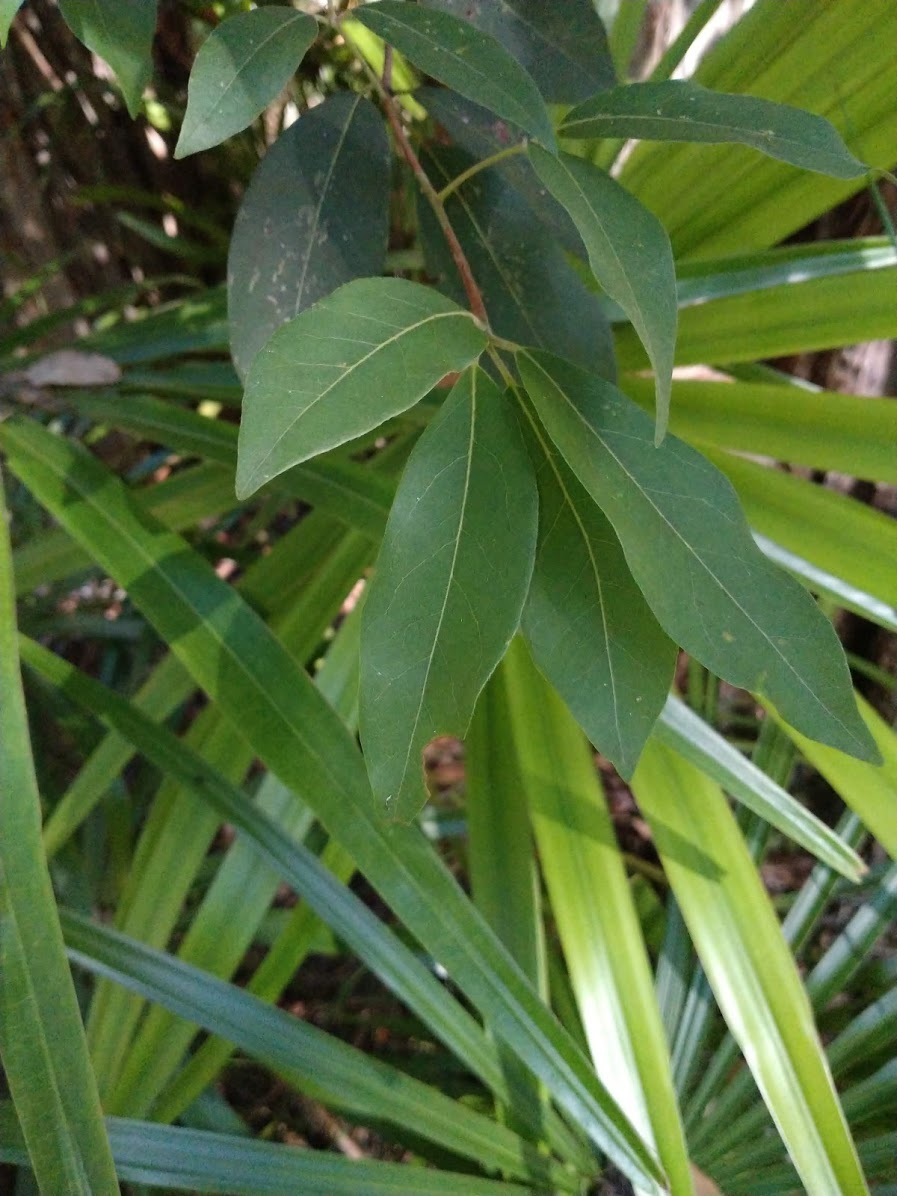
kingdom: Plantae
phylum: Tracheophyta
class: Magnoliopsida
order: Myrtales
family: Myrtaceae
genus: Syncarpia
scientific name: Syncarpia glomulifera
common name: Turpentine tree
